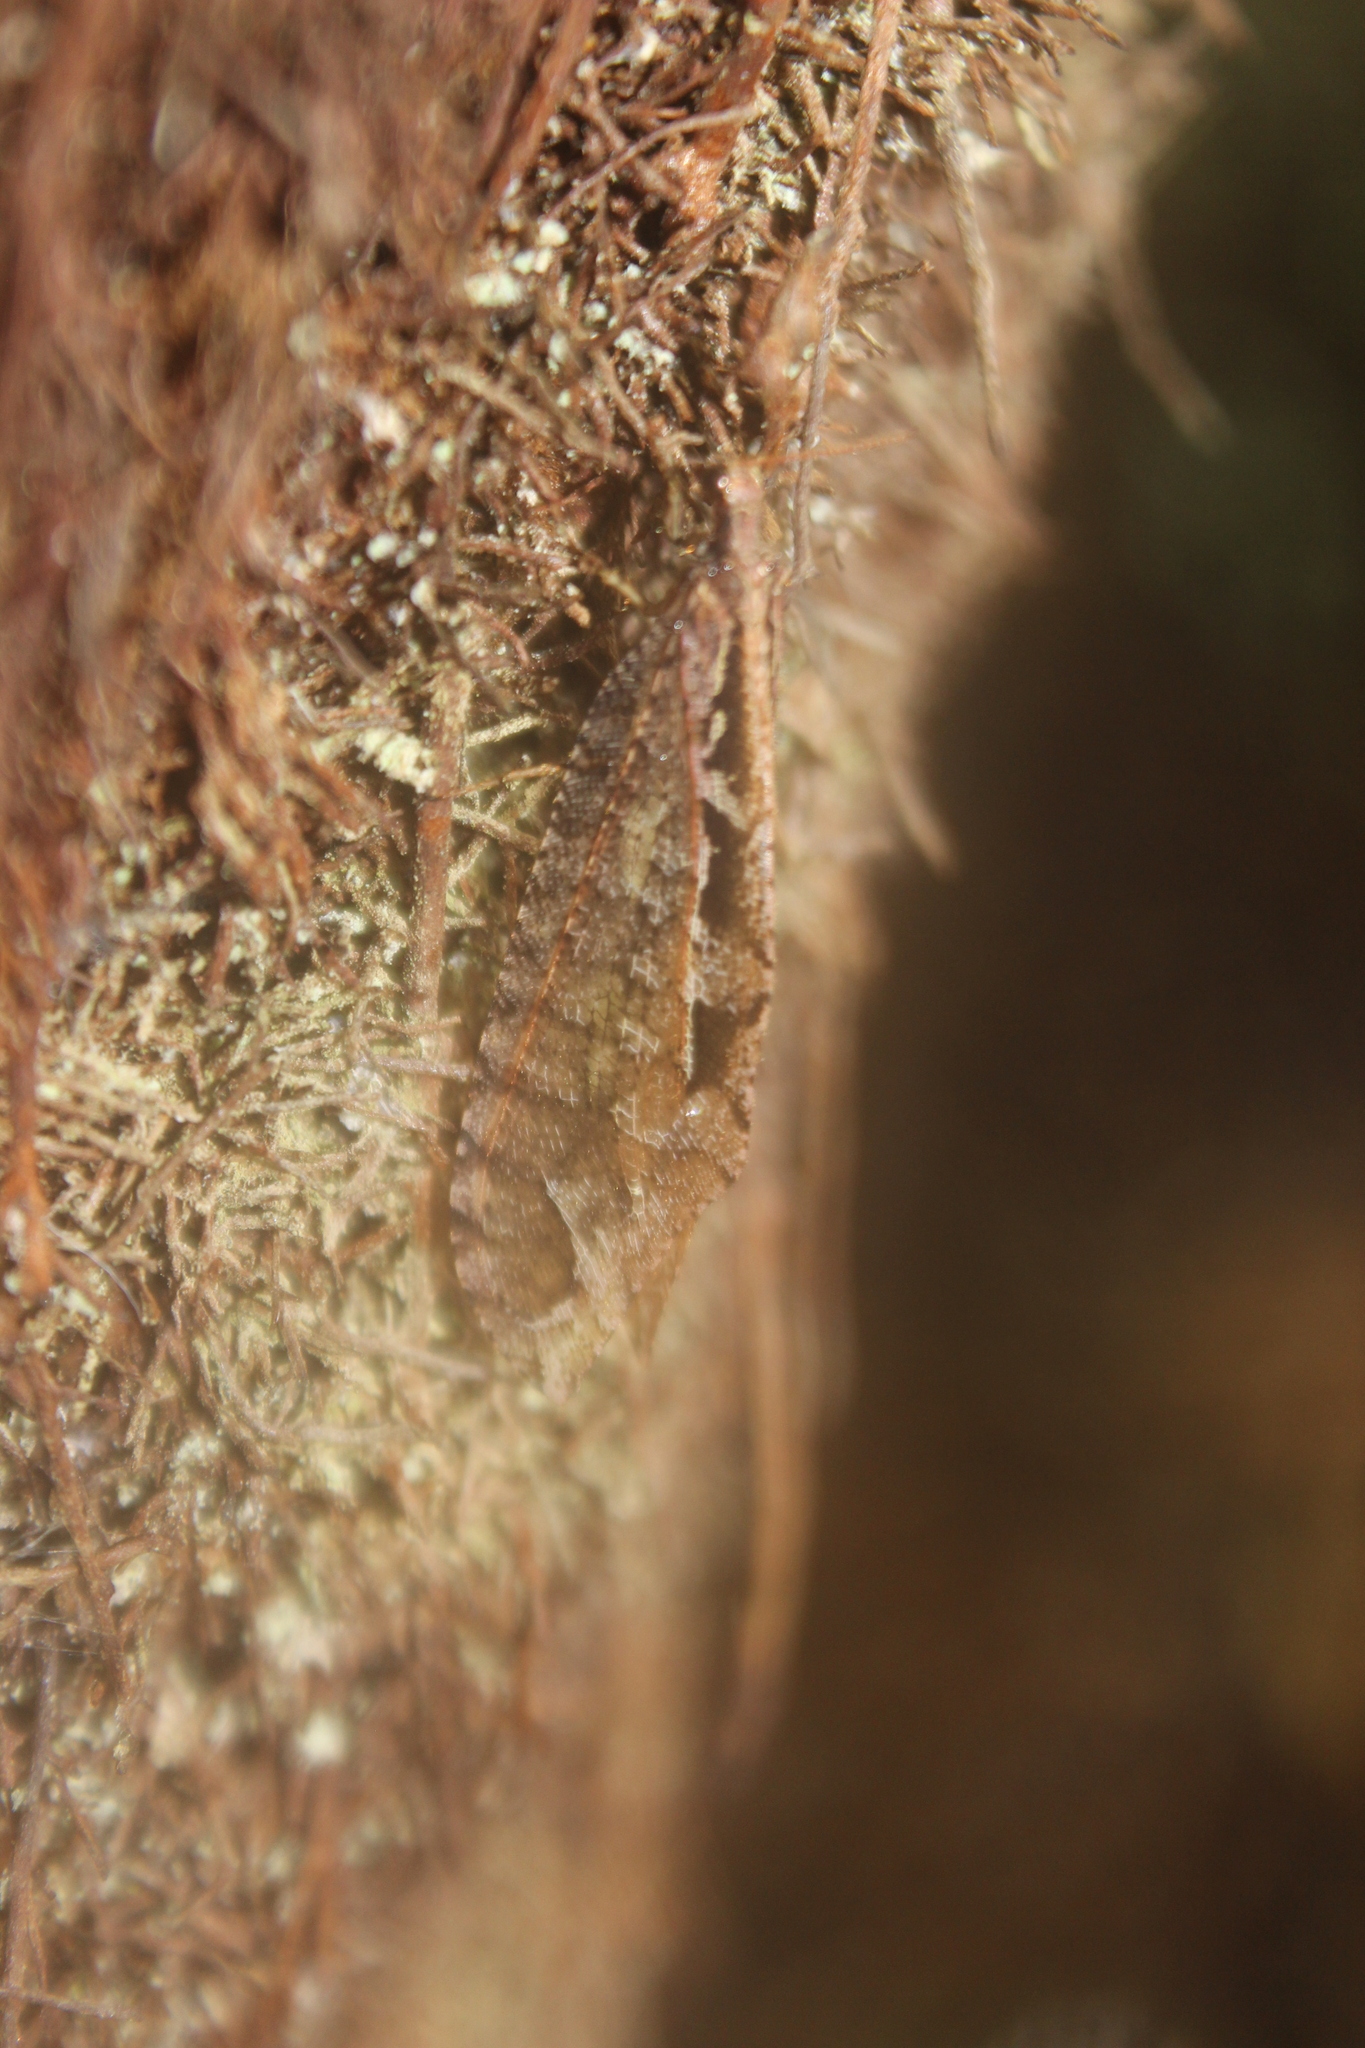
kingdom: Animalia
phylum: Arthropoda
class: Insecta
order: Neuroptera
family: Osmylidae
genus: Kempynus
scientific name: Kempynus incisus
